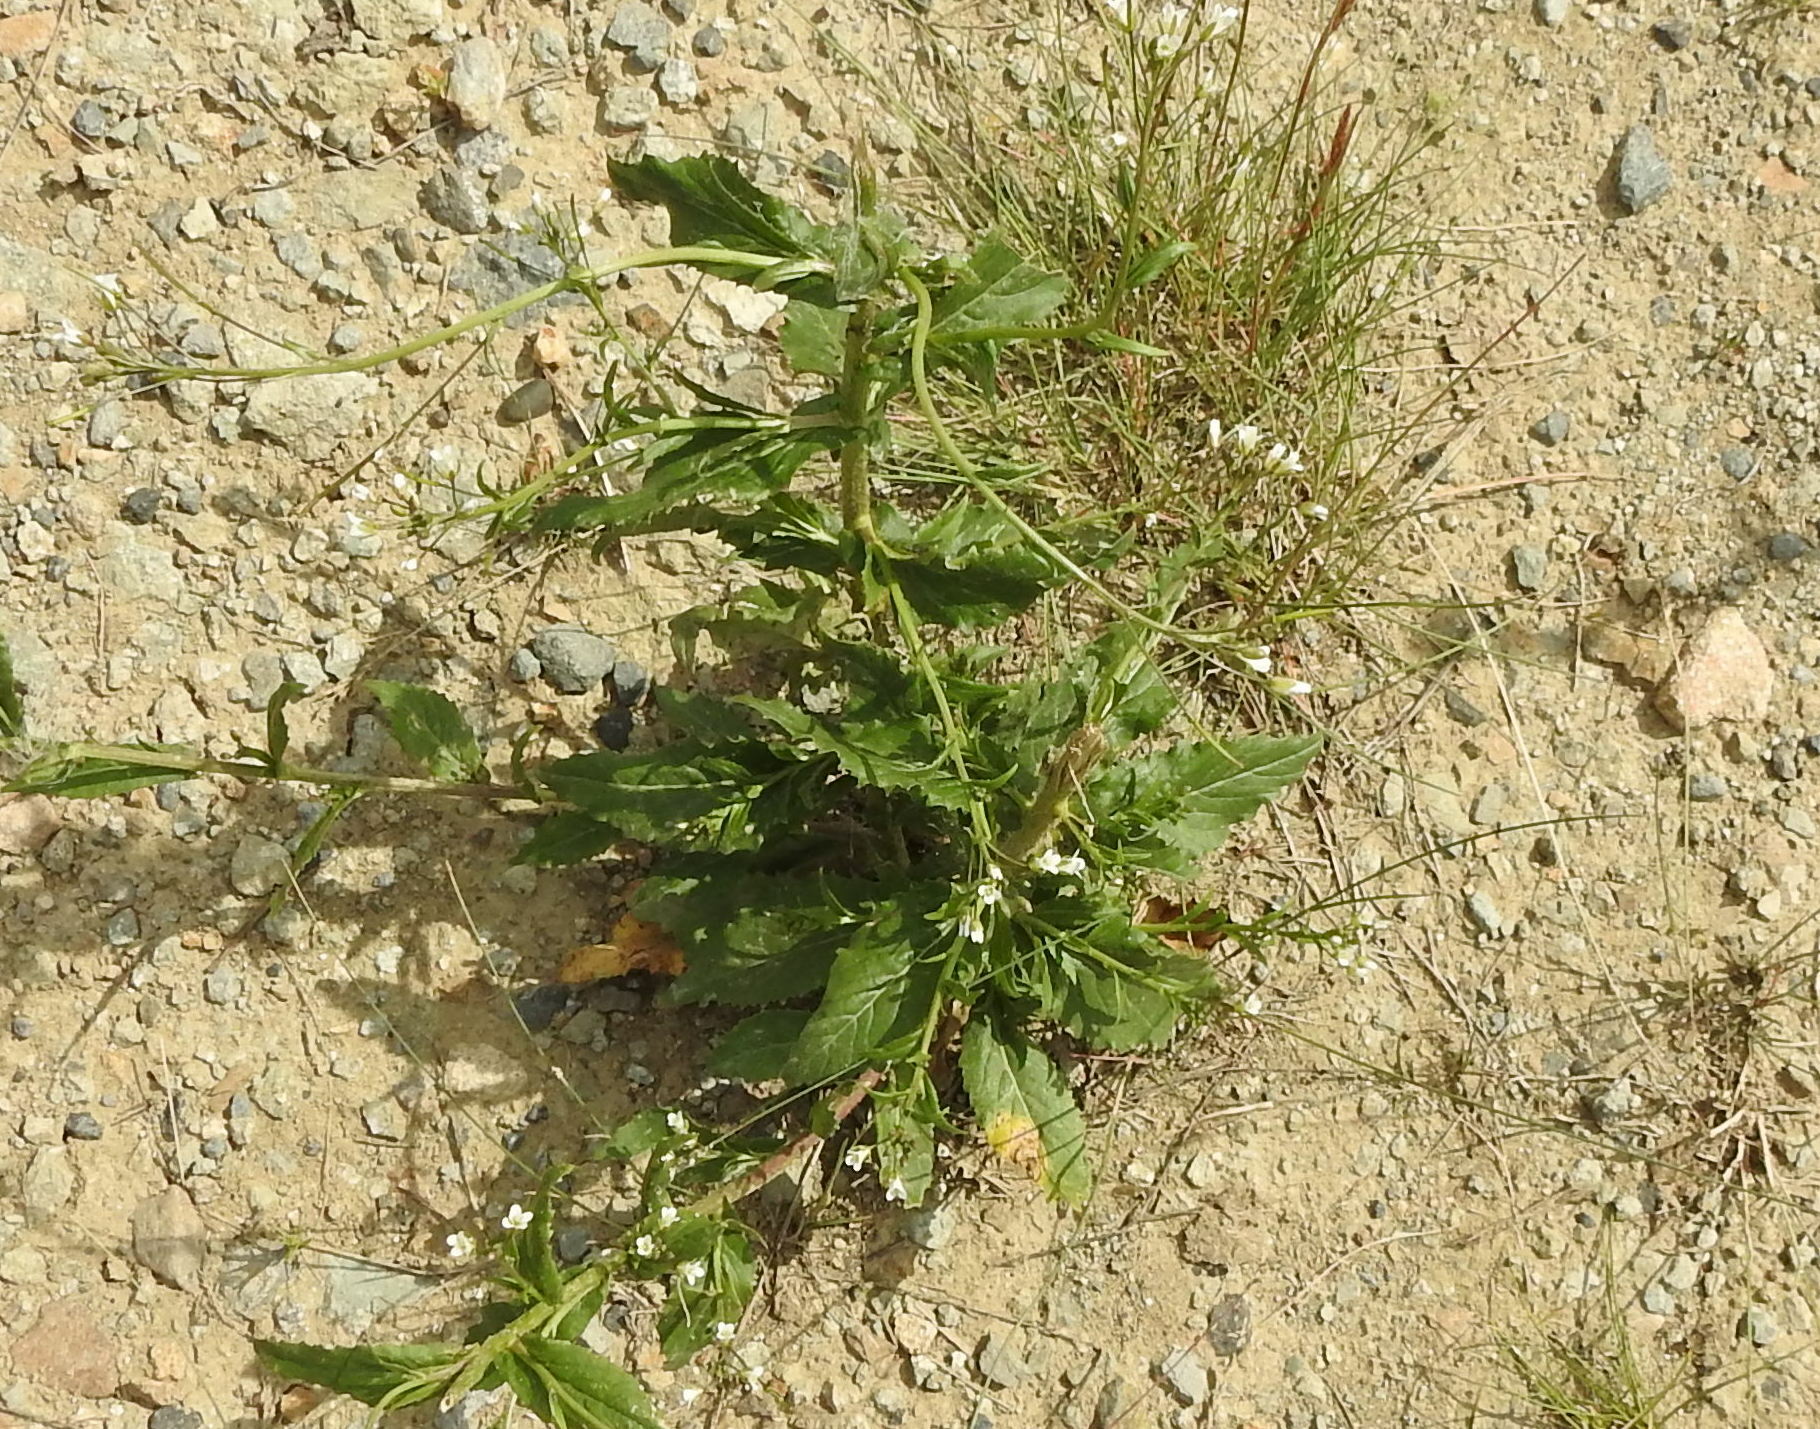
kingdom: Plantae
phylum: Tracheophyta
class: Magnoliopsida
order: Brassicales
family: Brassicaceae
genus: Catolobus
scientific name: Catolobus pendulus
